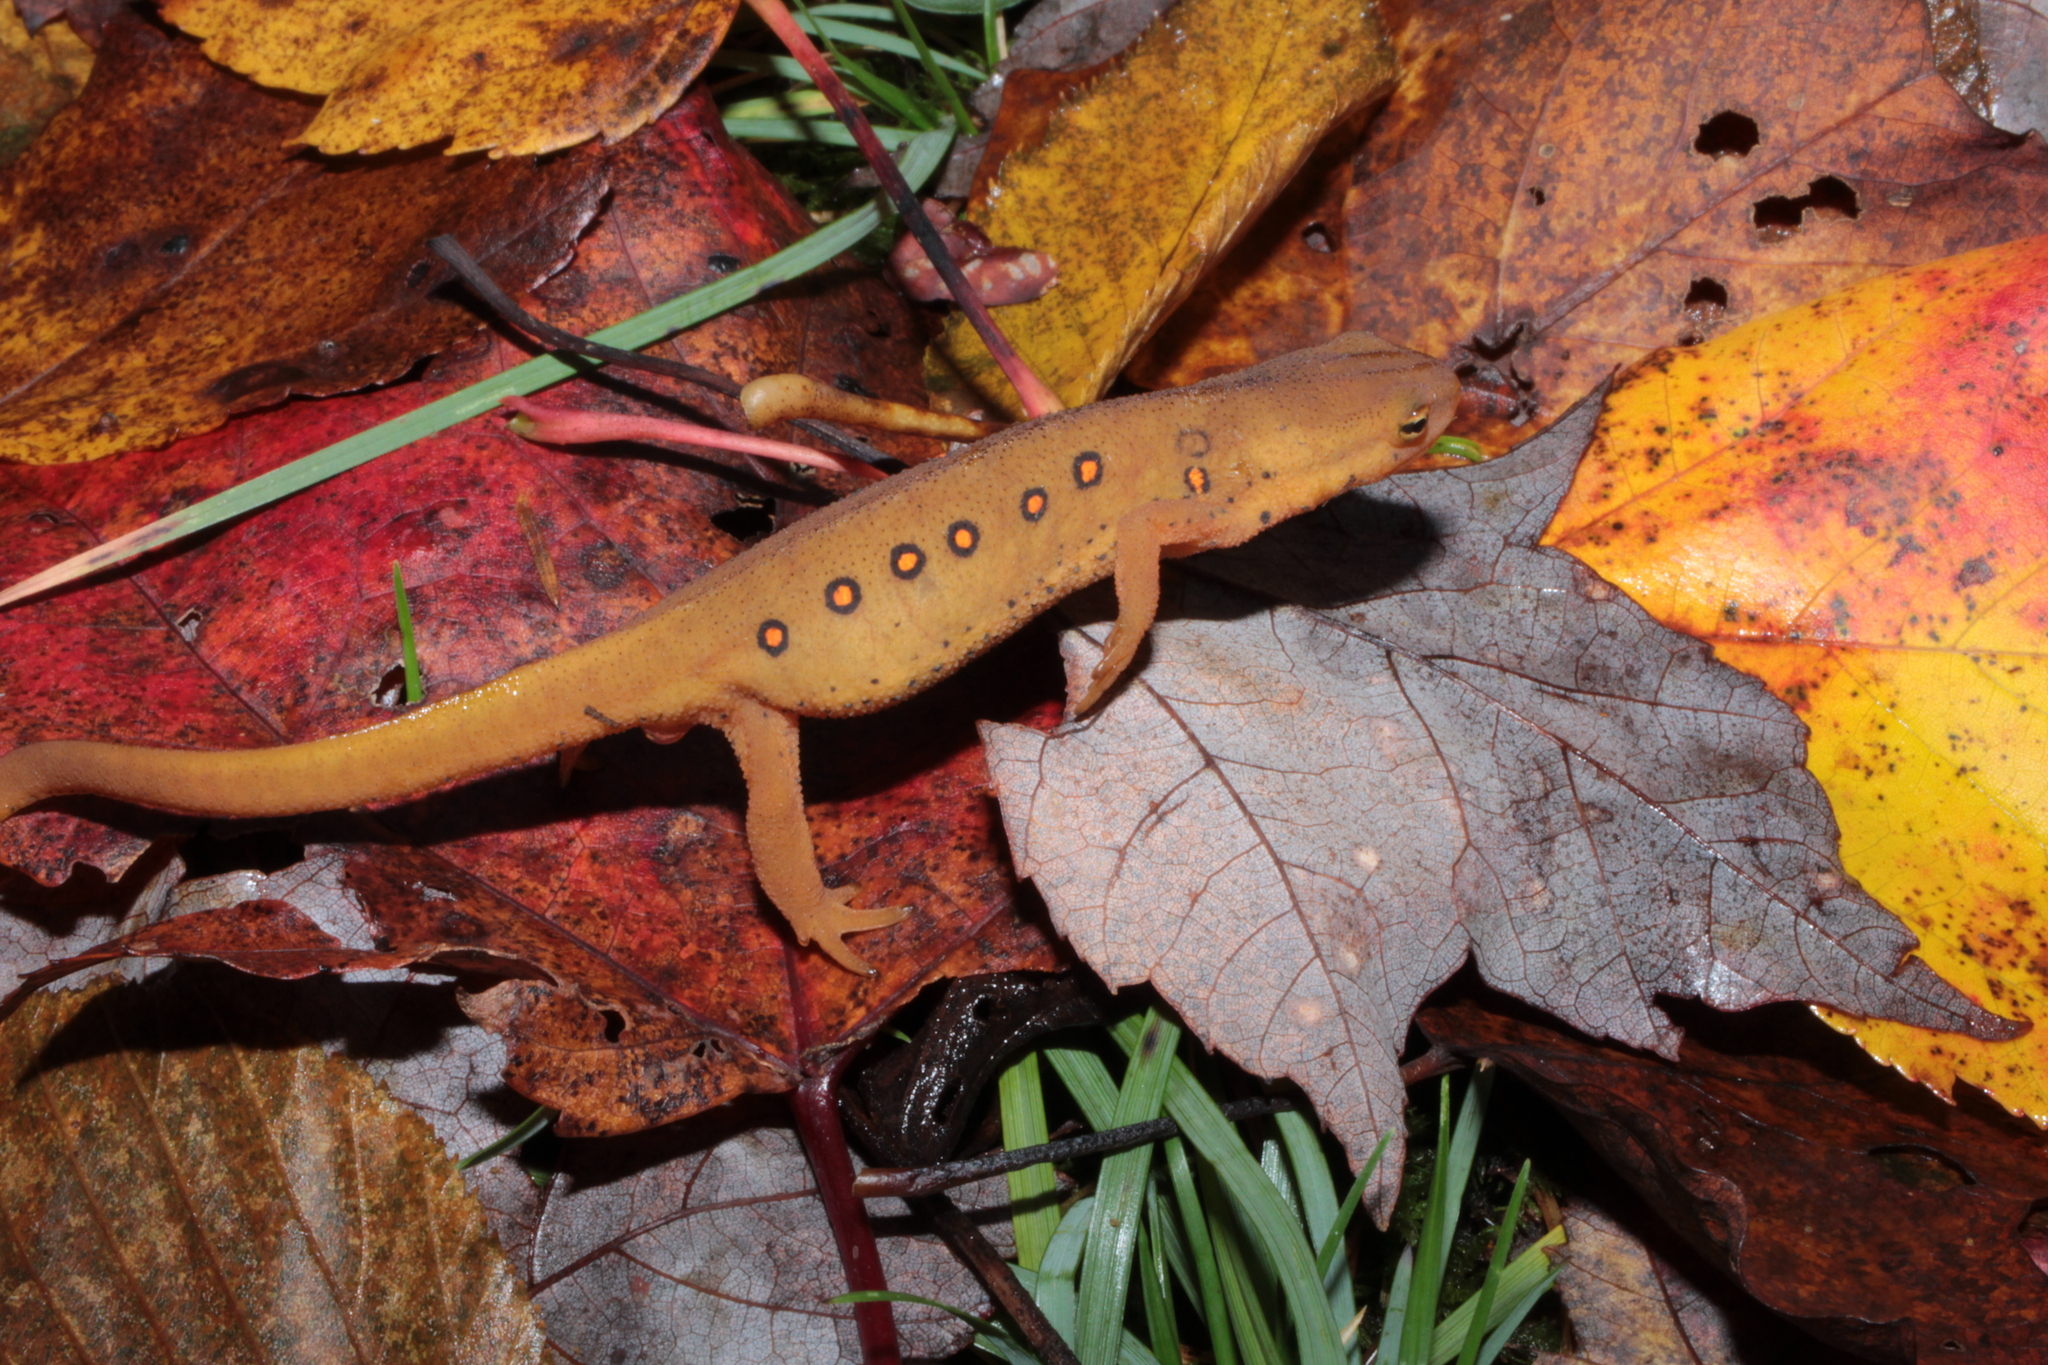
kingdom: Animalia
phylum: Chordata
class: Amphibia
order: Caudata
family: Salamandridae
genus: Notophthalmus
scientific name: Notophthalmus viridescens
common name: Eastern newt
